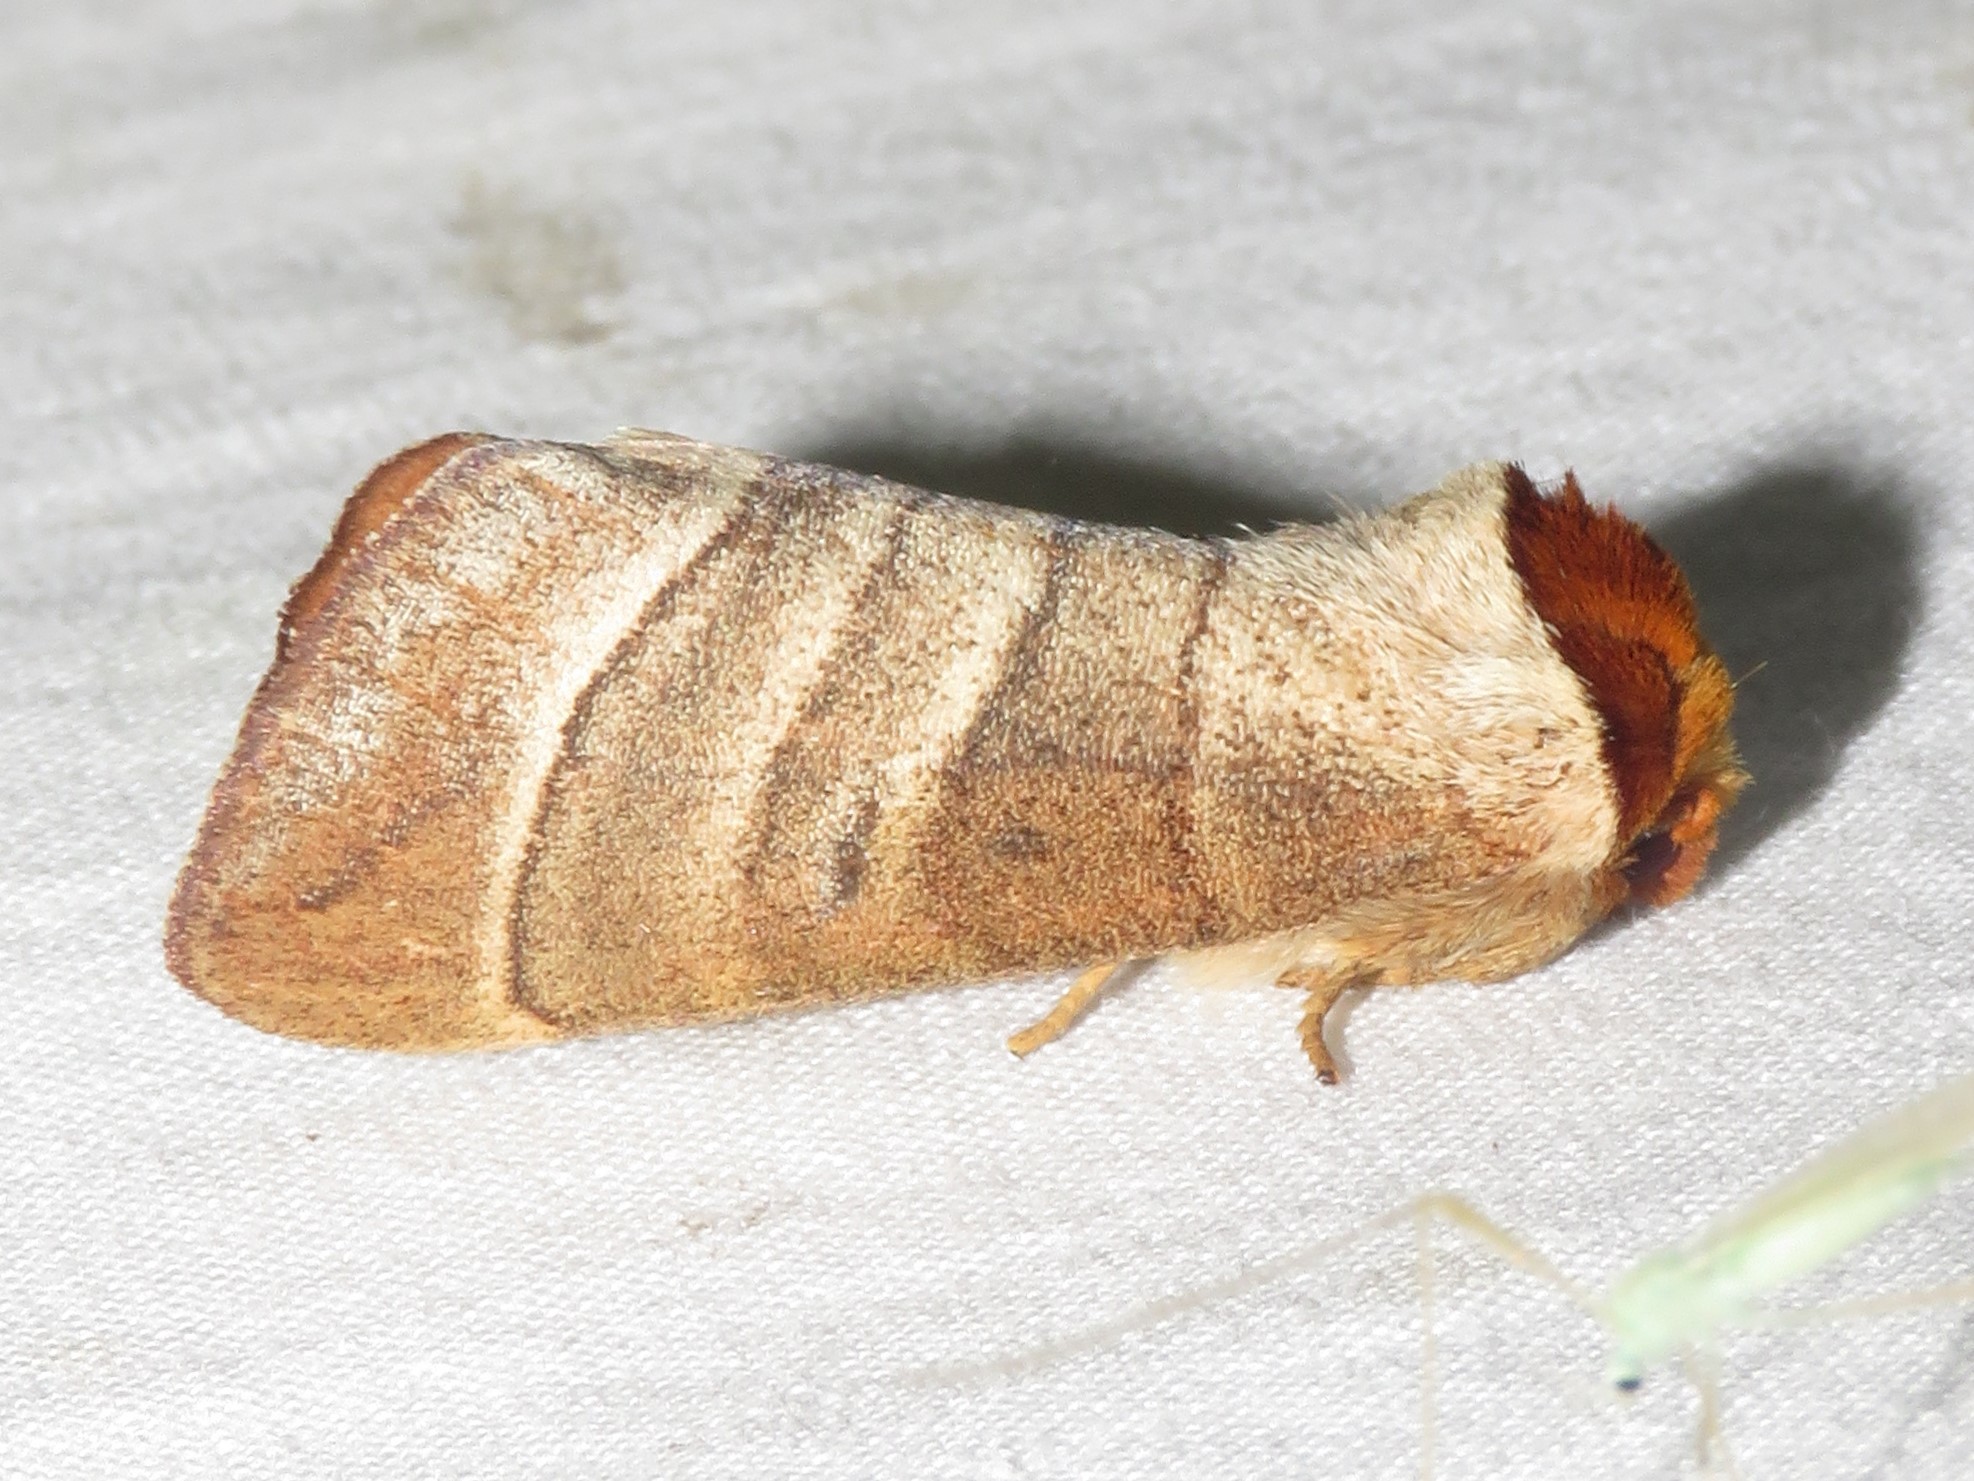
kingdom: Animalia
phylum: Arthropoda
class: Insecta
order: Lepidoptera
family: Notodontidae
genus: Datana
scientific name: Datana integerrima
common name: Walnut caterpillar
